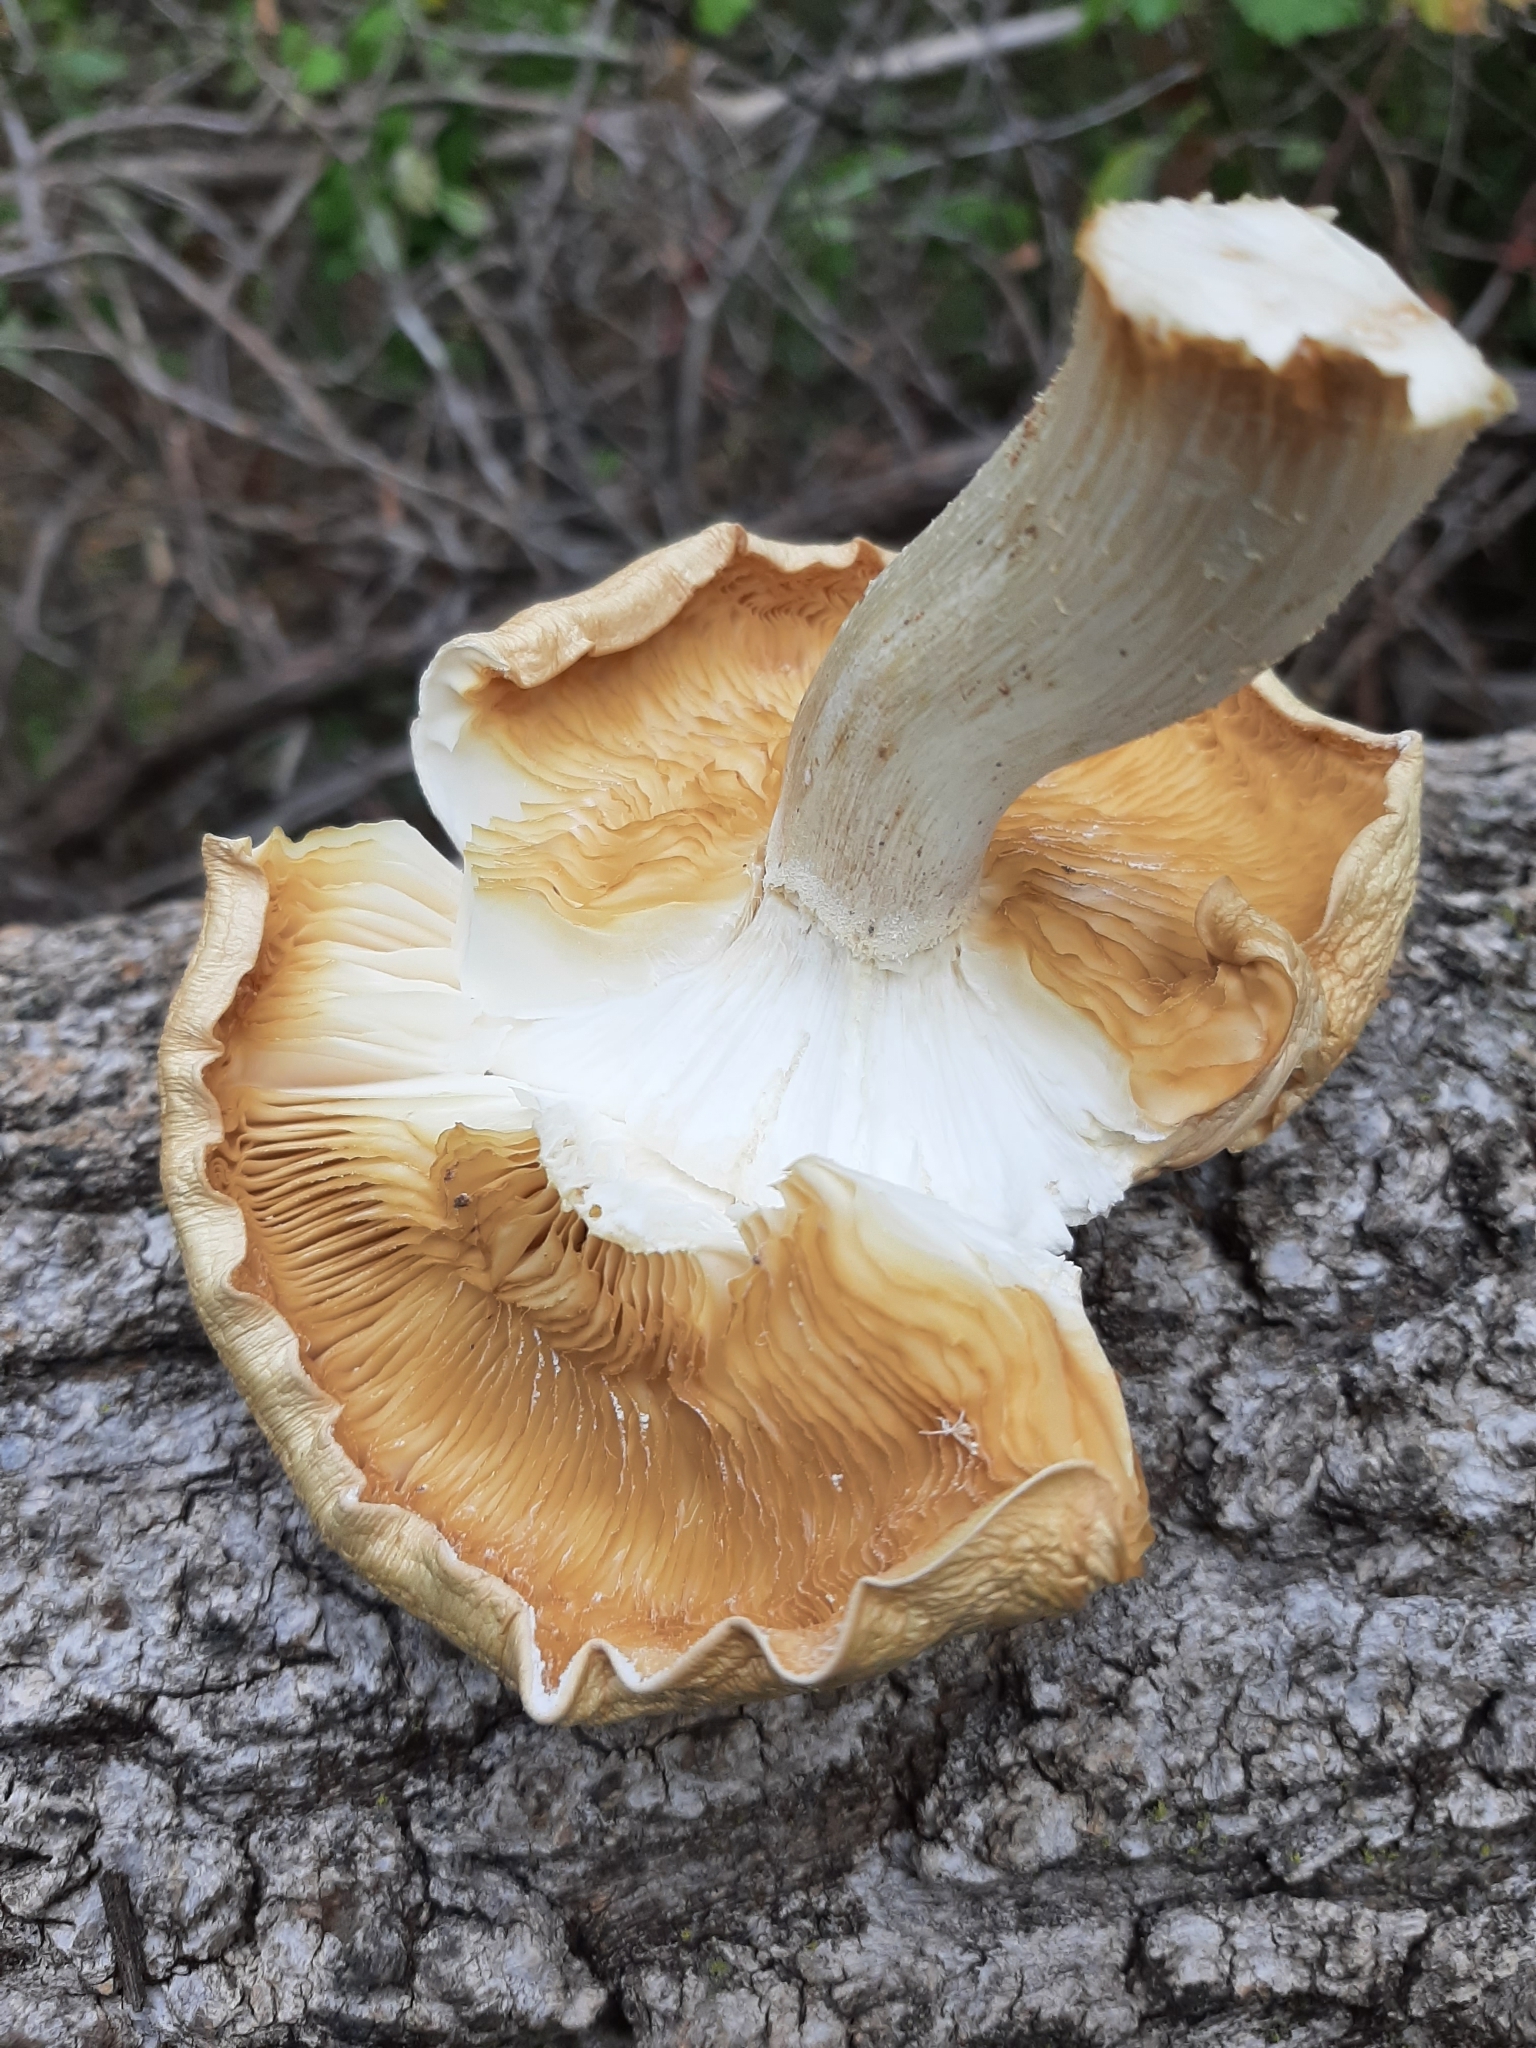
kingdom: Fungi
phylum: Basidiomycota
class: Agaricomycetes
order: Agaricales
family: Lyophyllaceae
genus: Hypsizygus
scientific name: Hypsizygus ulmarius
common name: Elm leech
